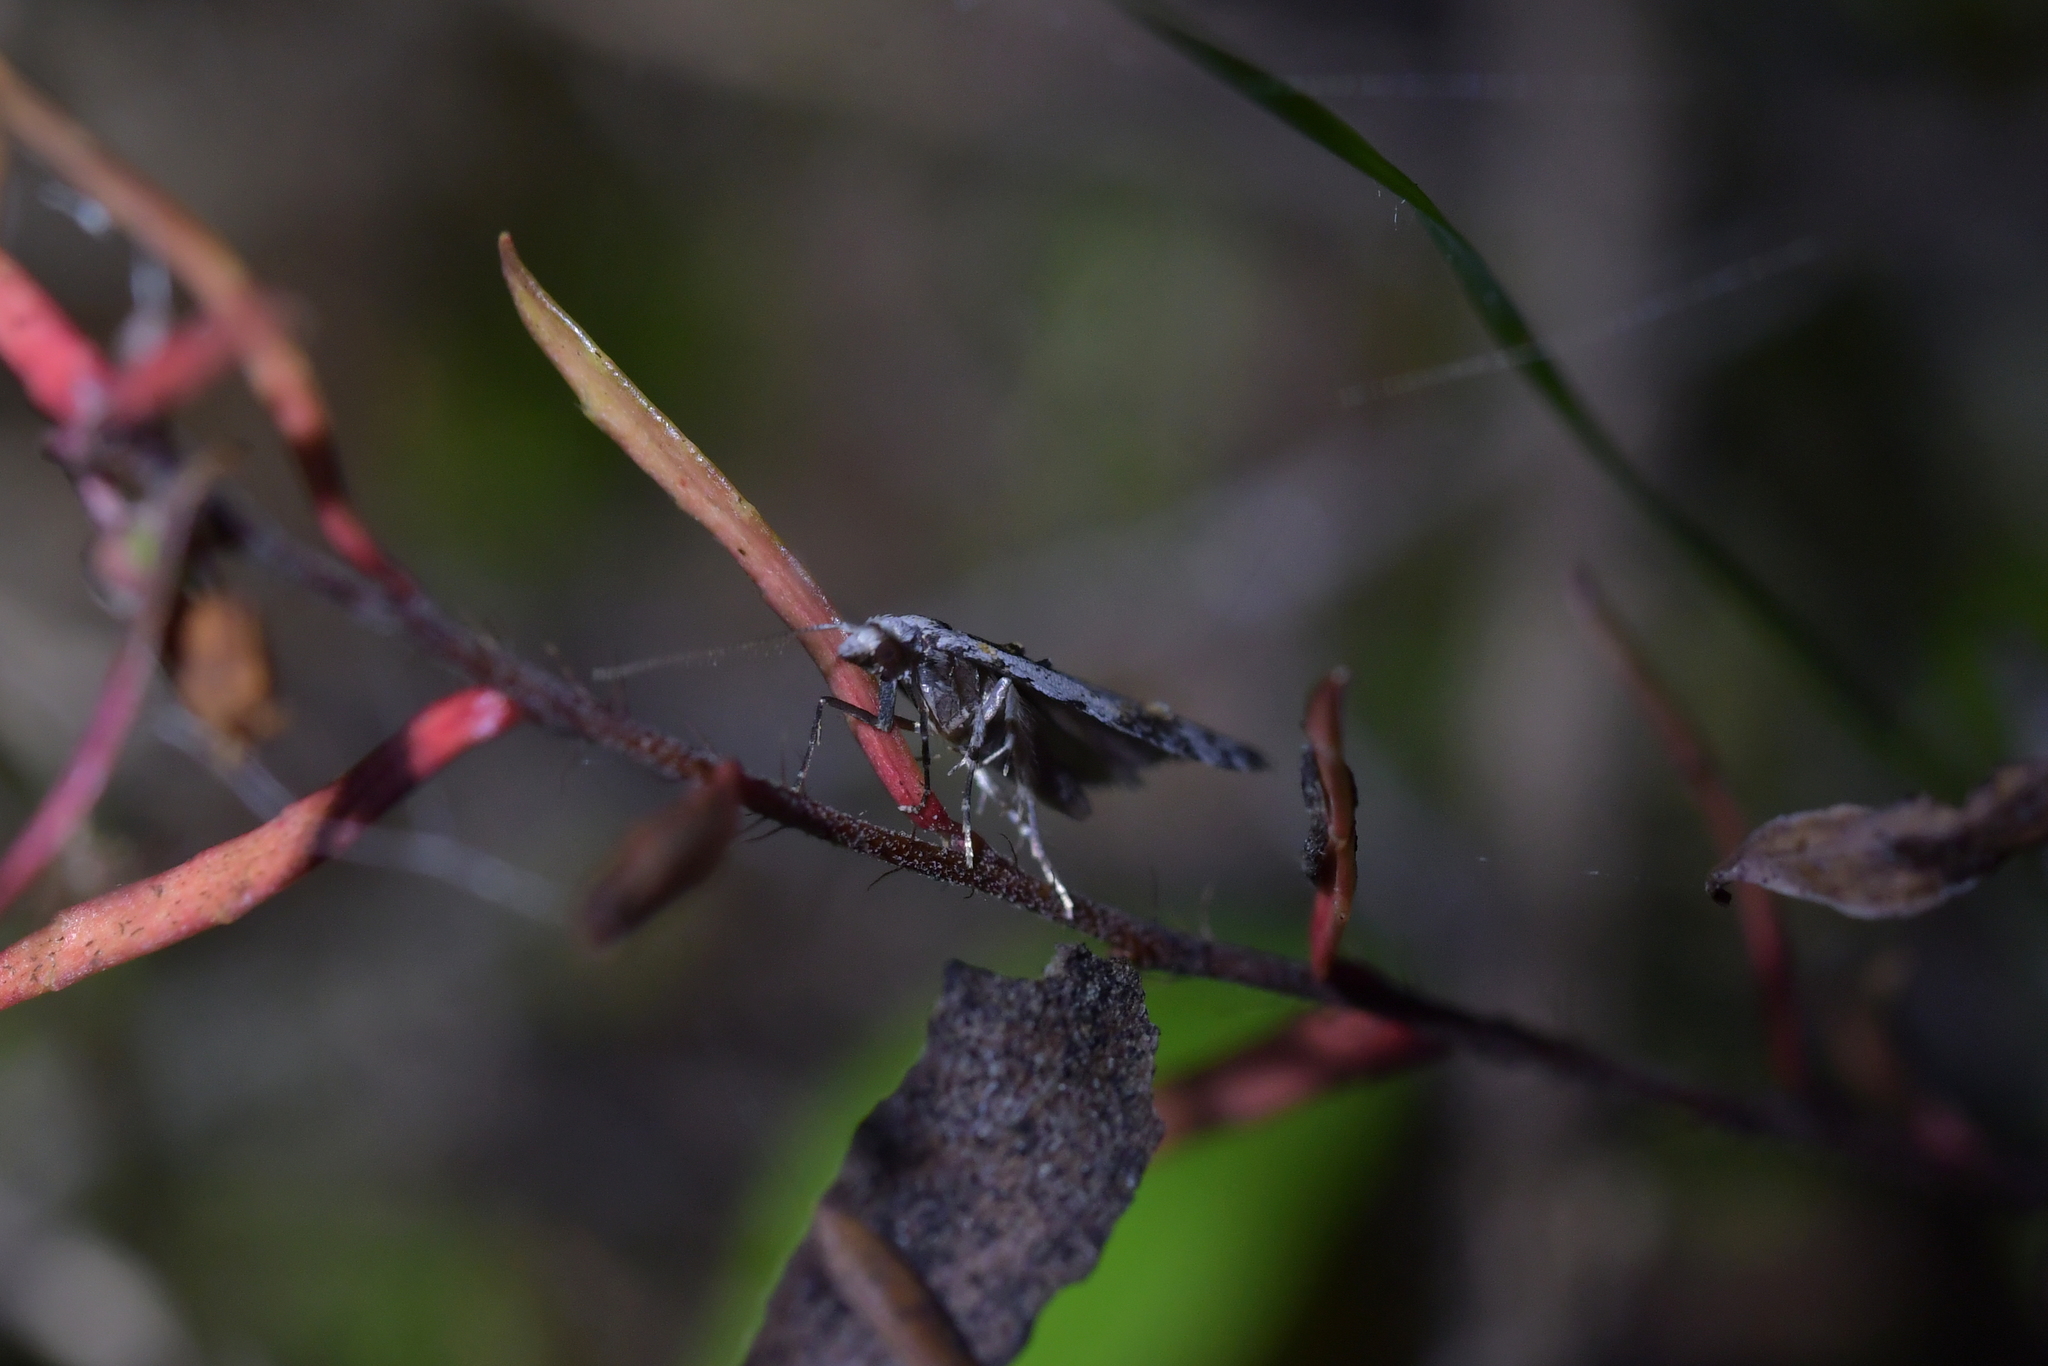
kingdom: Animalia
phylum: Arthropoda
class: Insecta
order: Lepidoptera
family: Carposinidae
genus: Carposina
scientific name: Carposina
